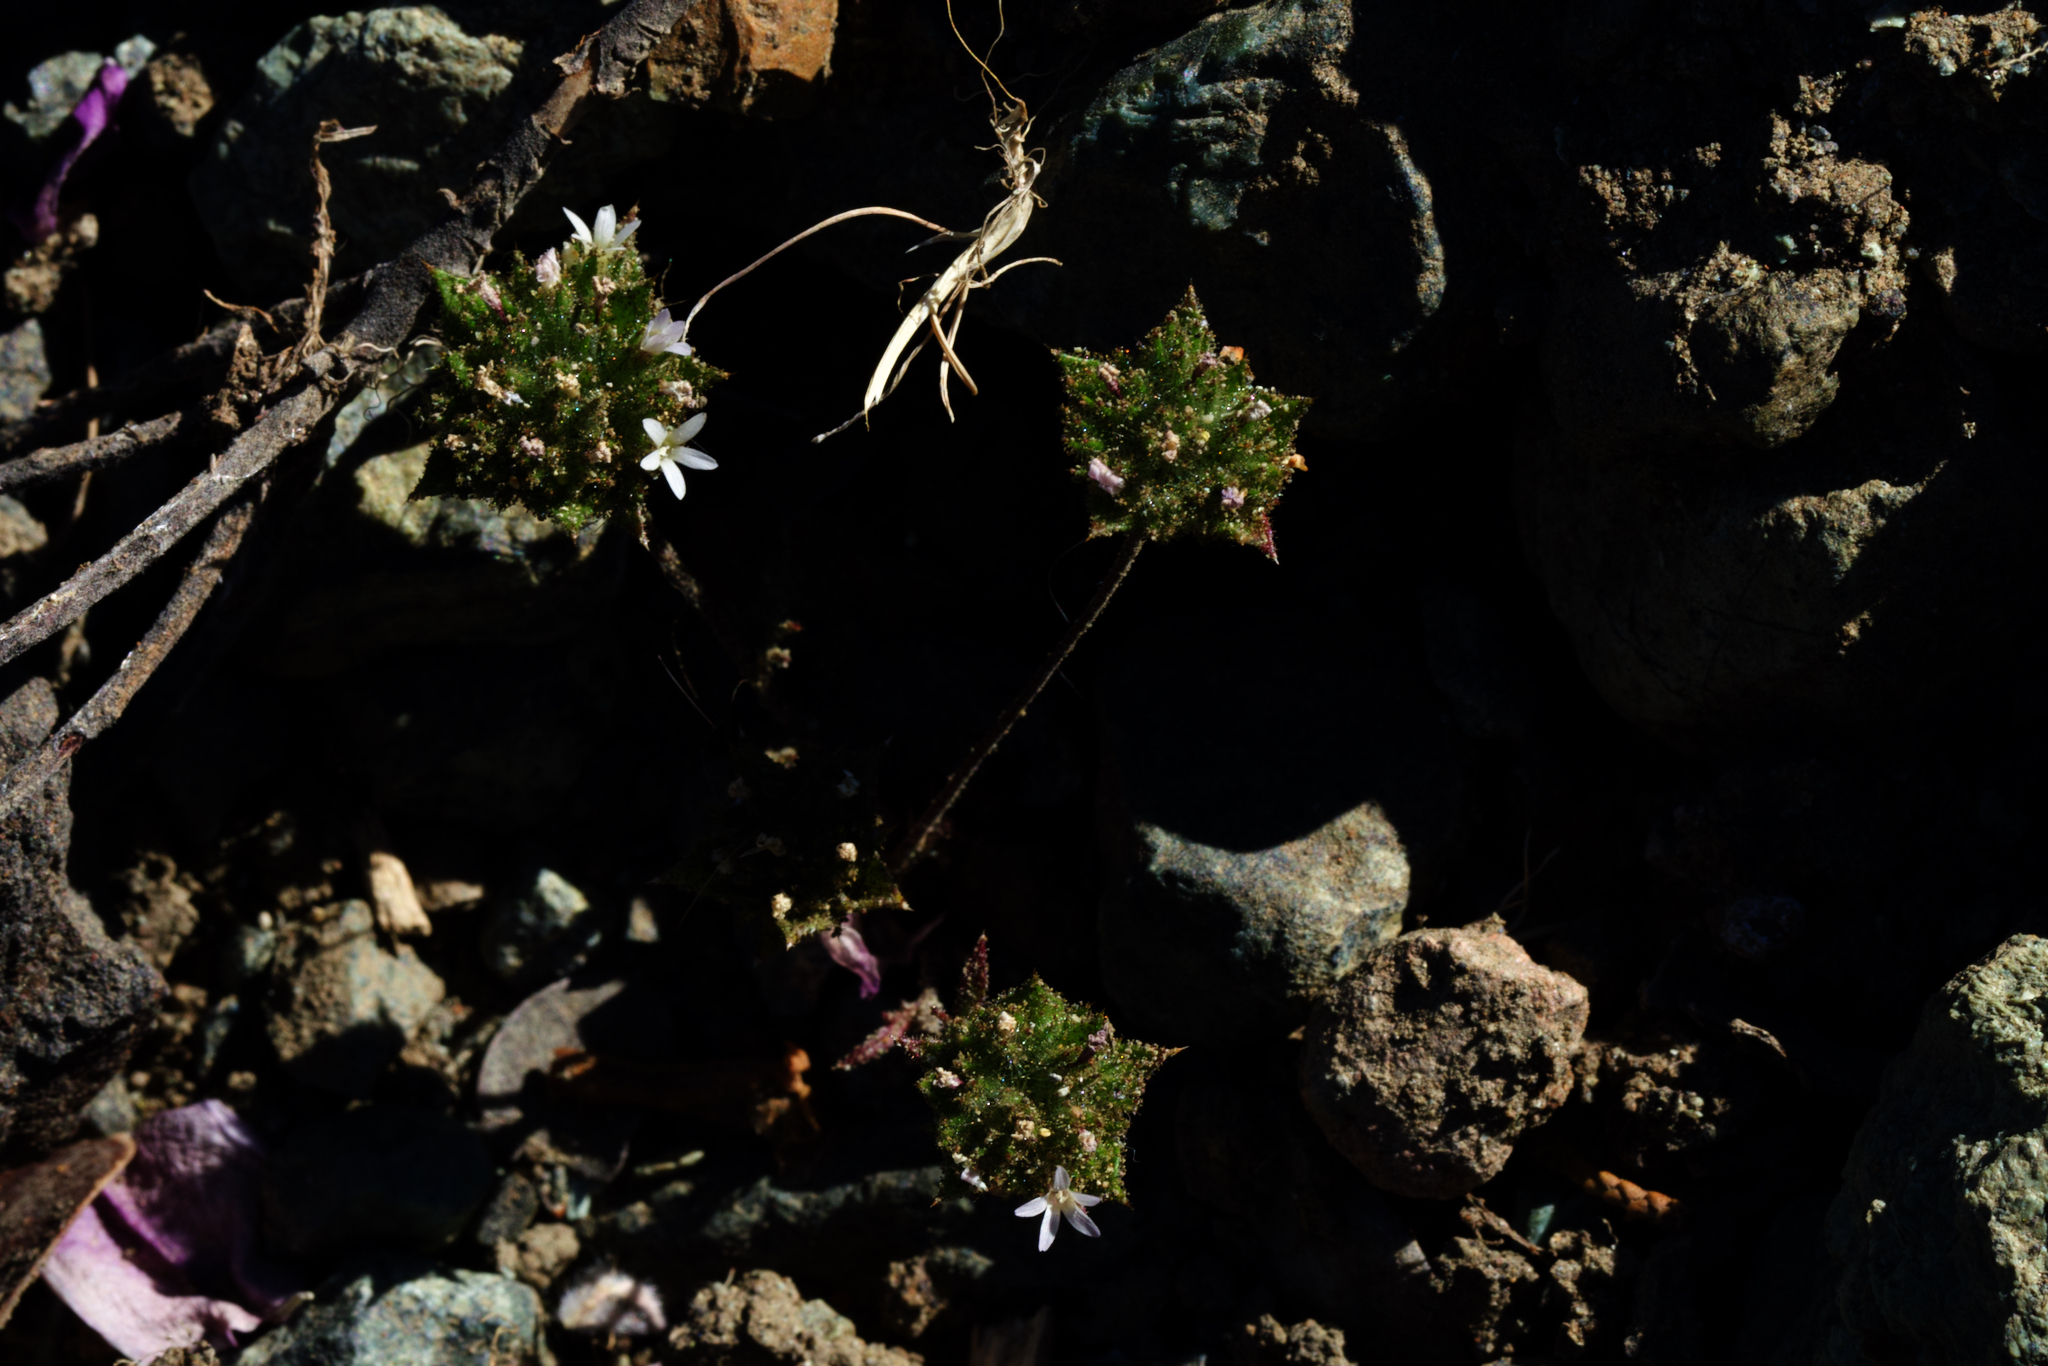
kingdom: Plantae
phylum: Tracheophyta
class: Magnoliopsida
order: Ericales
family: Polemoniaceae
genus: Navarretia
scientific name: Navarretia rosulata
